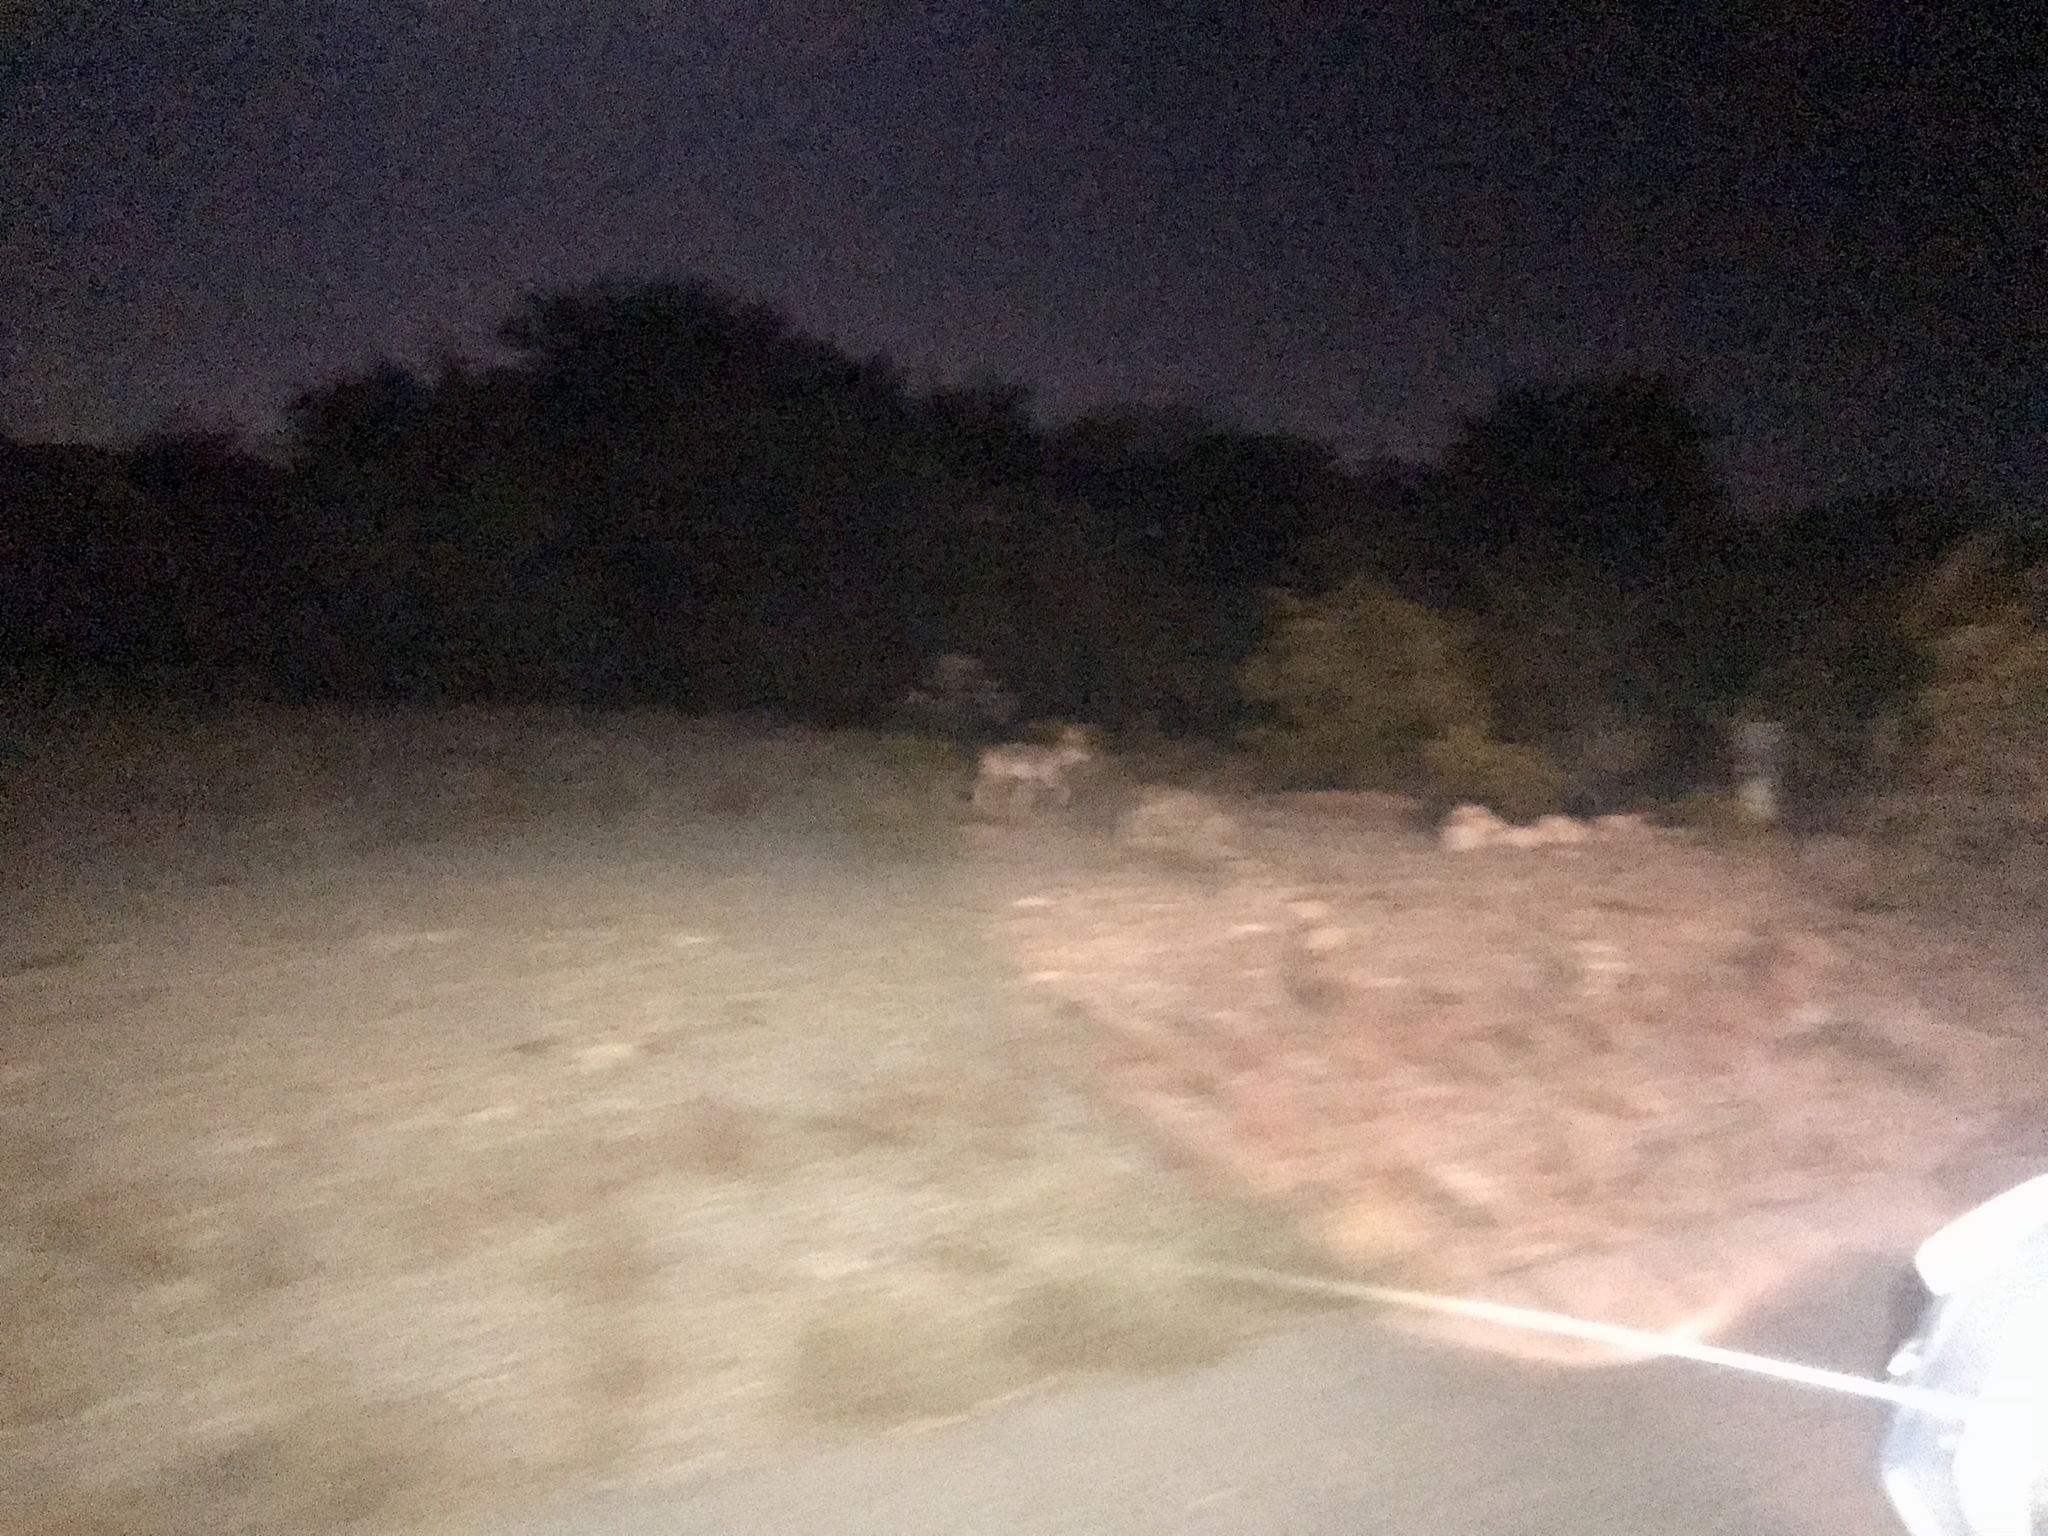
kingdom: Animalia
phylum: Chordata
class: Mammalia
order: Carnivora
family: Canidae
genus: Canis
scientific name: Canis latrans
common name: Coyote
